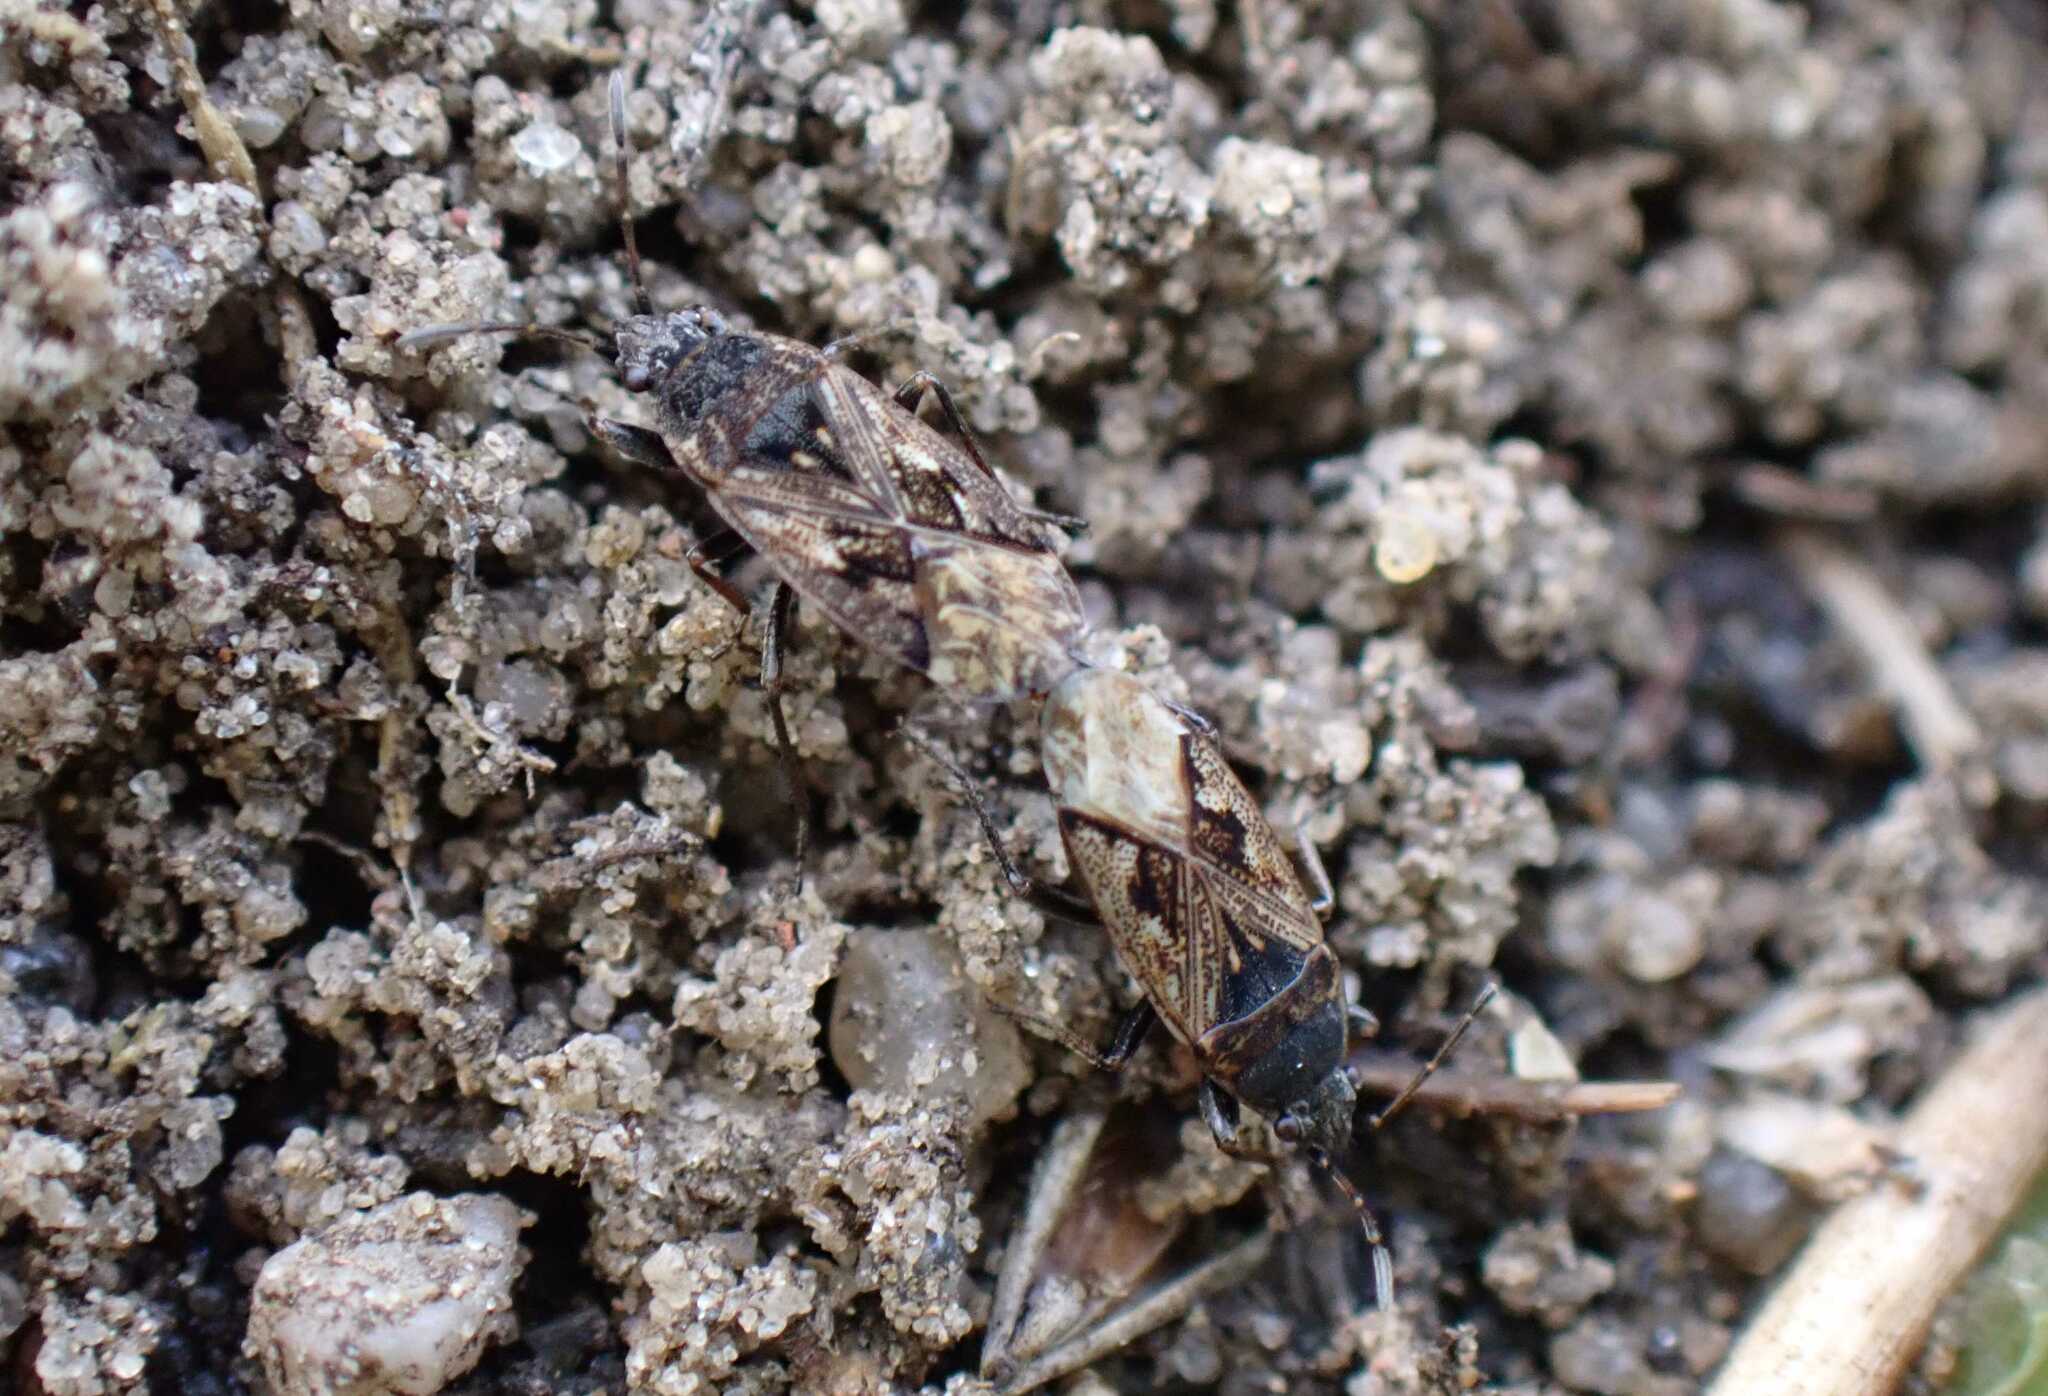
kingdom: Animalia
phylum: Arthropoda
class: Insecta
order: Hemiptera
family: Rhyparochromidae
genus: Sphragisticus
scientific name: Sphragisticus nebulosus
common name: Dirt-colored seed bug
